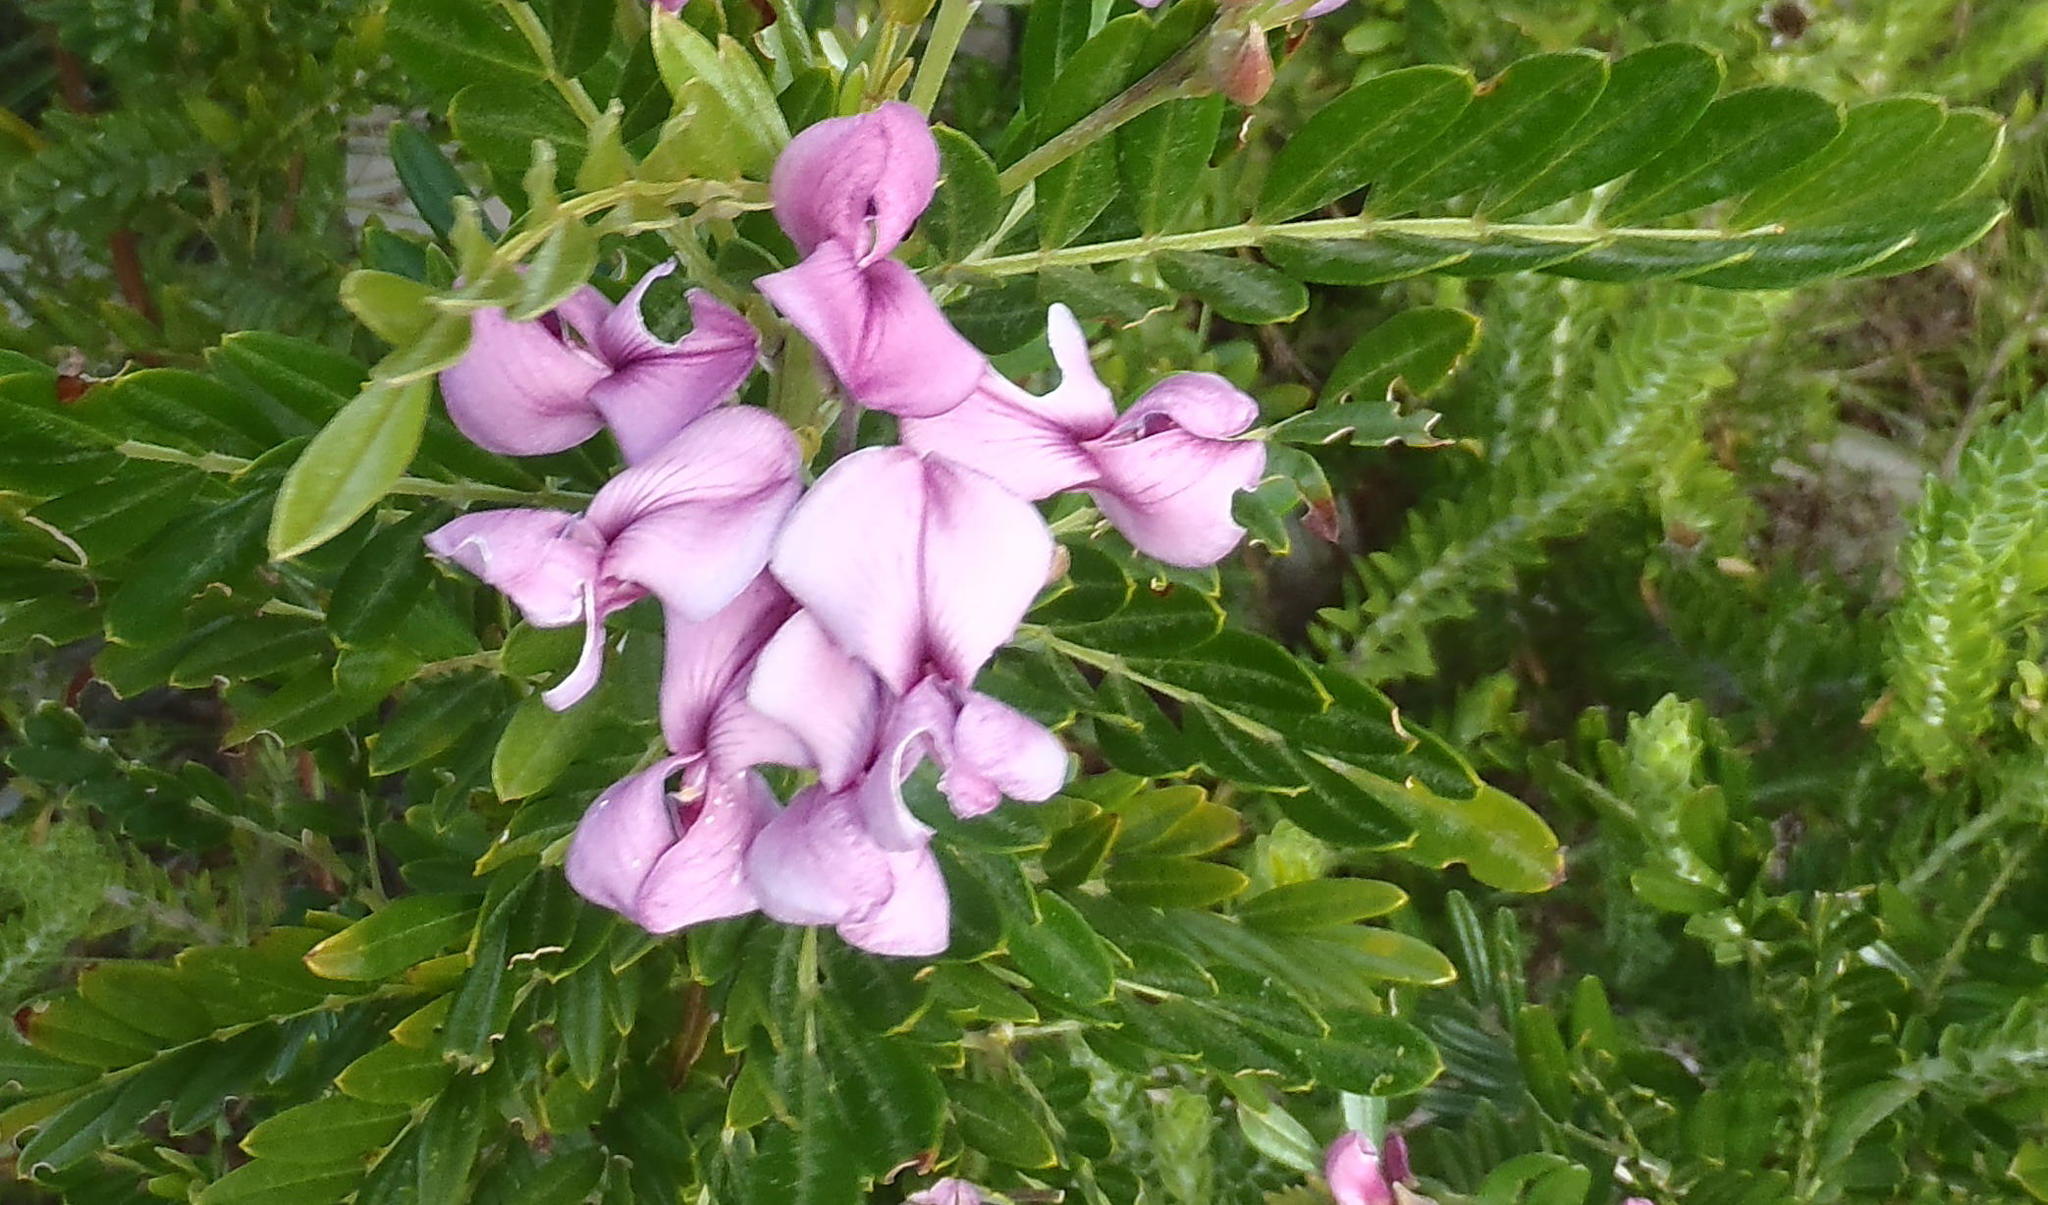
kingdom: Plantae
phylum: Tracheophyta
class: Magnoliopsida
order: Fabales
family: Fabaceae
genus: Virgilia
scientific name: Virgilia divaricata
